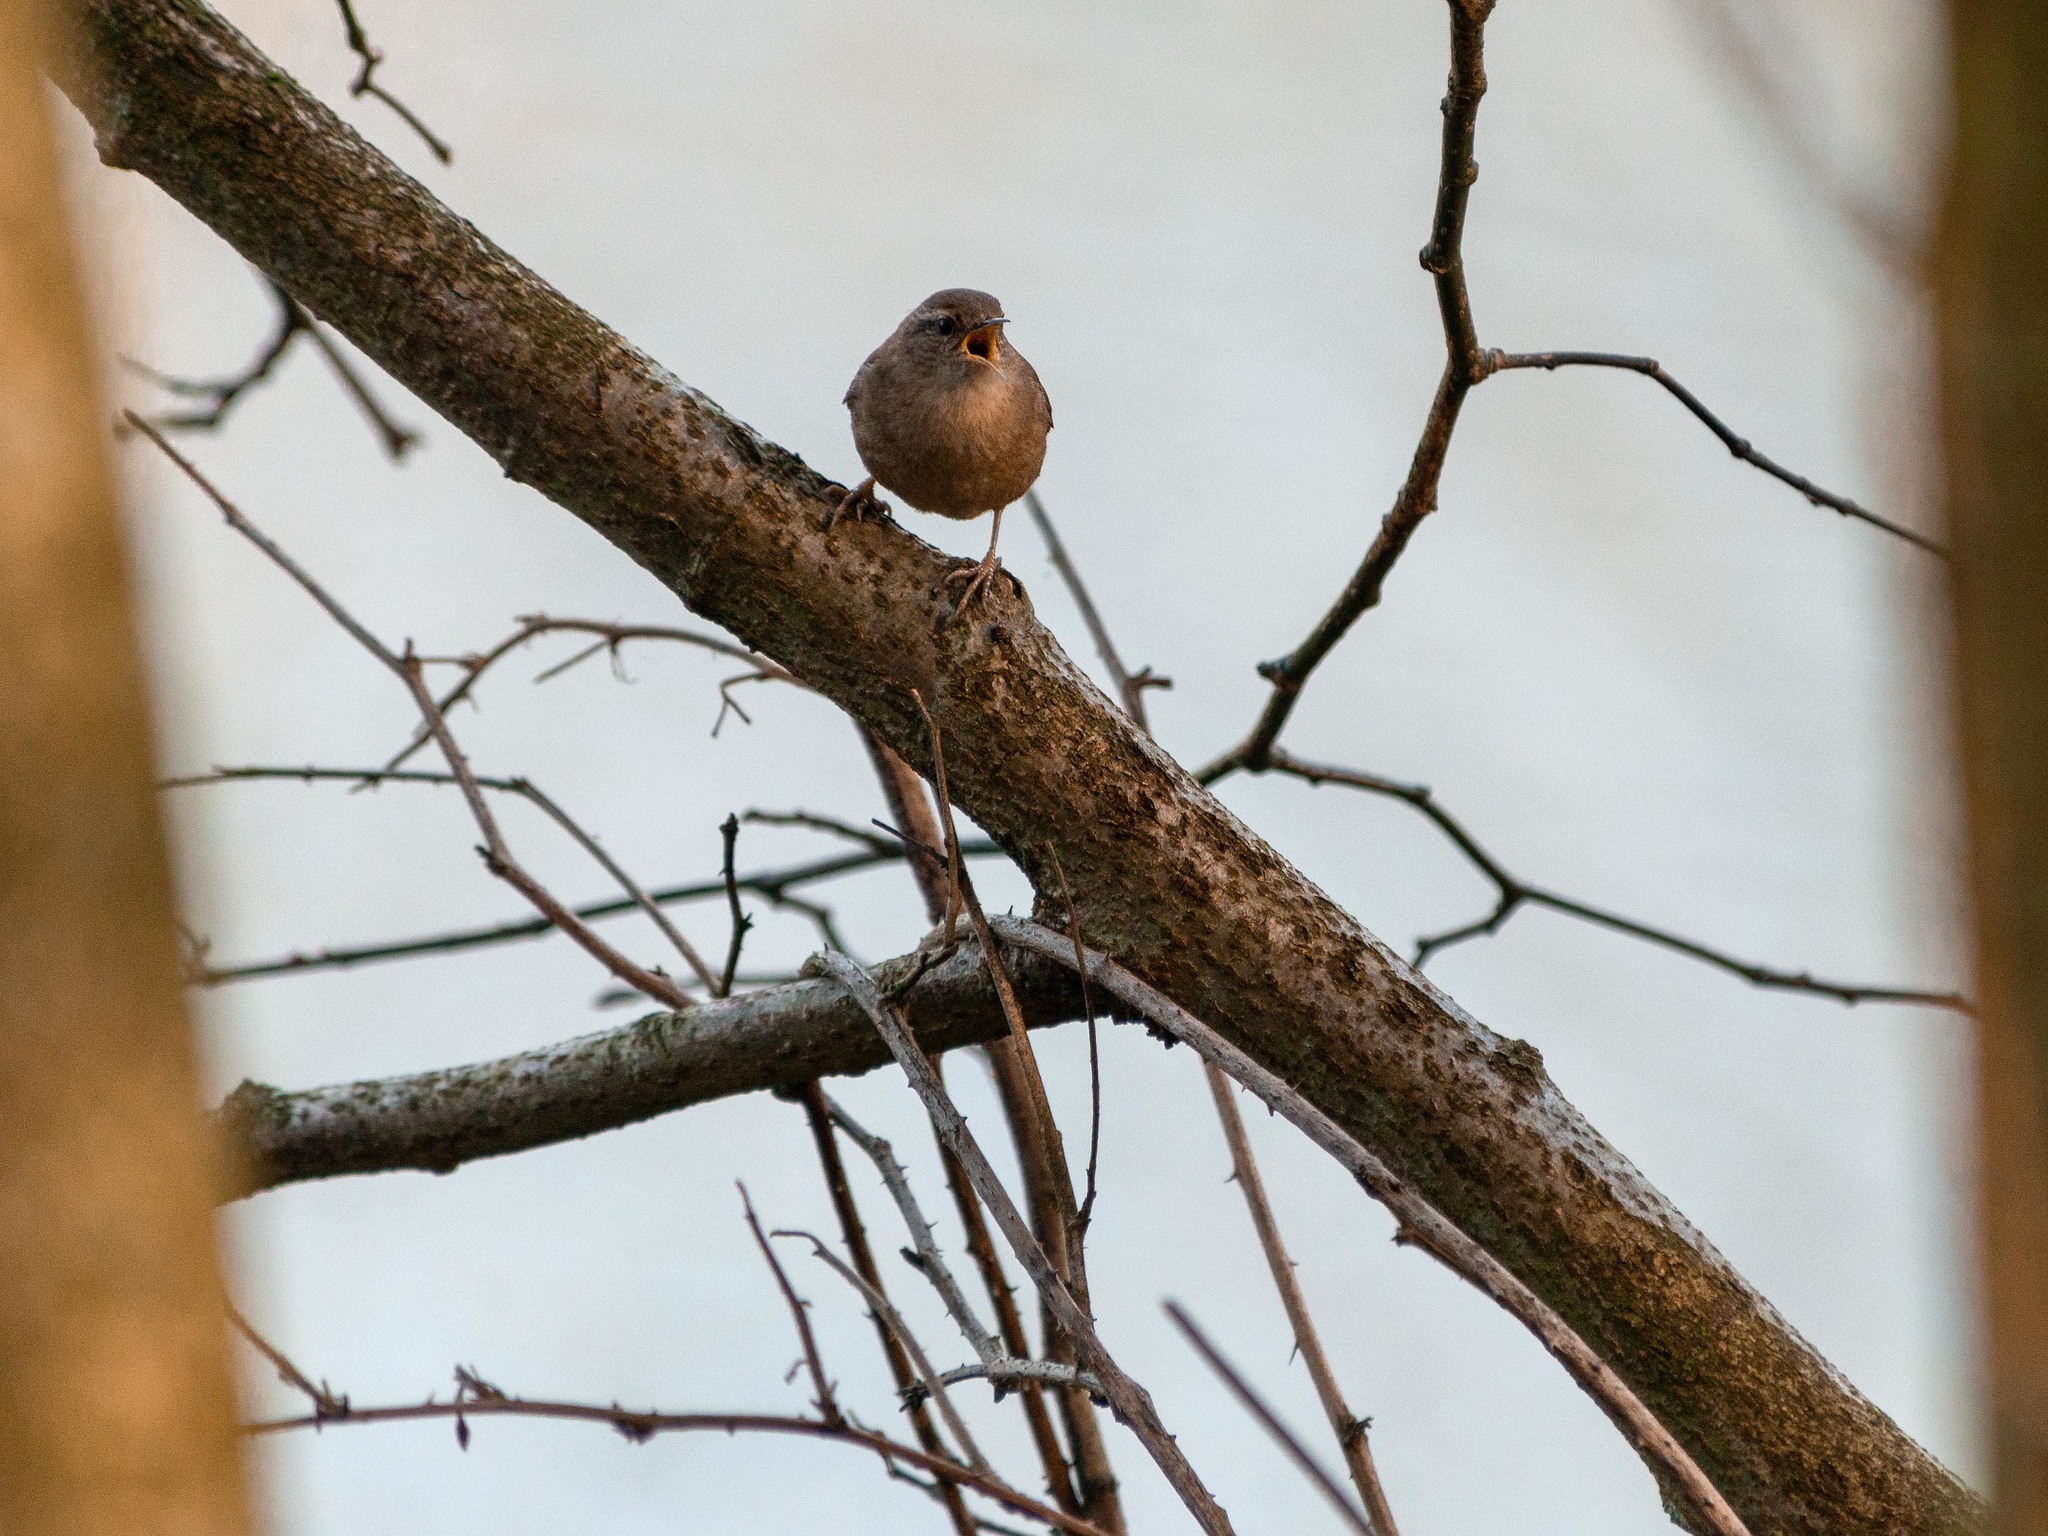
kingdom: Animalia
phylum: Chordata
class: Aves
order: Passeriformes
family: Troglodytidae
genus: Troglodytes
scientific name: Troglodytes troglodytes
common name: Eurasian wren
